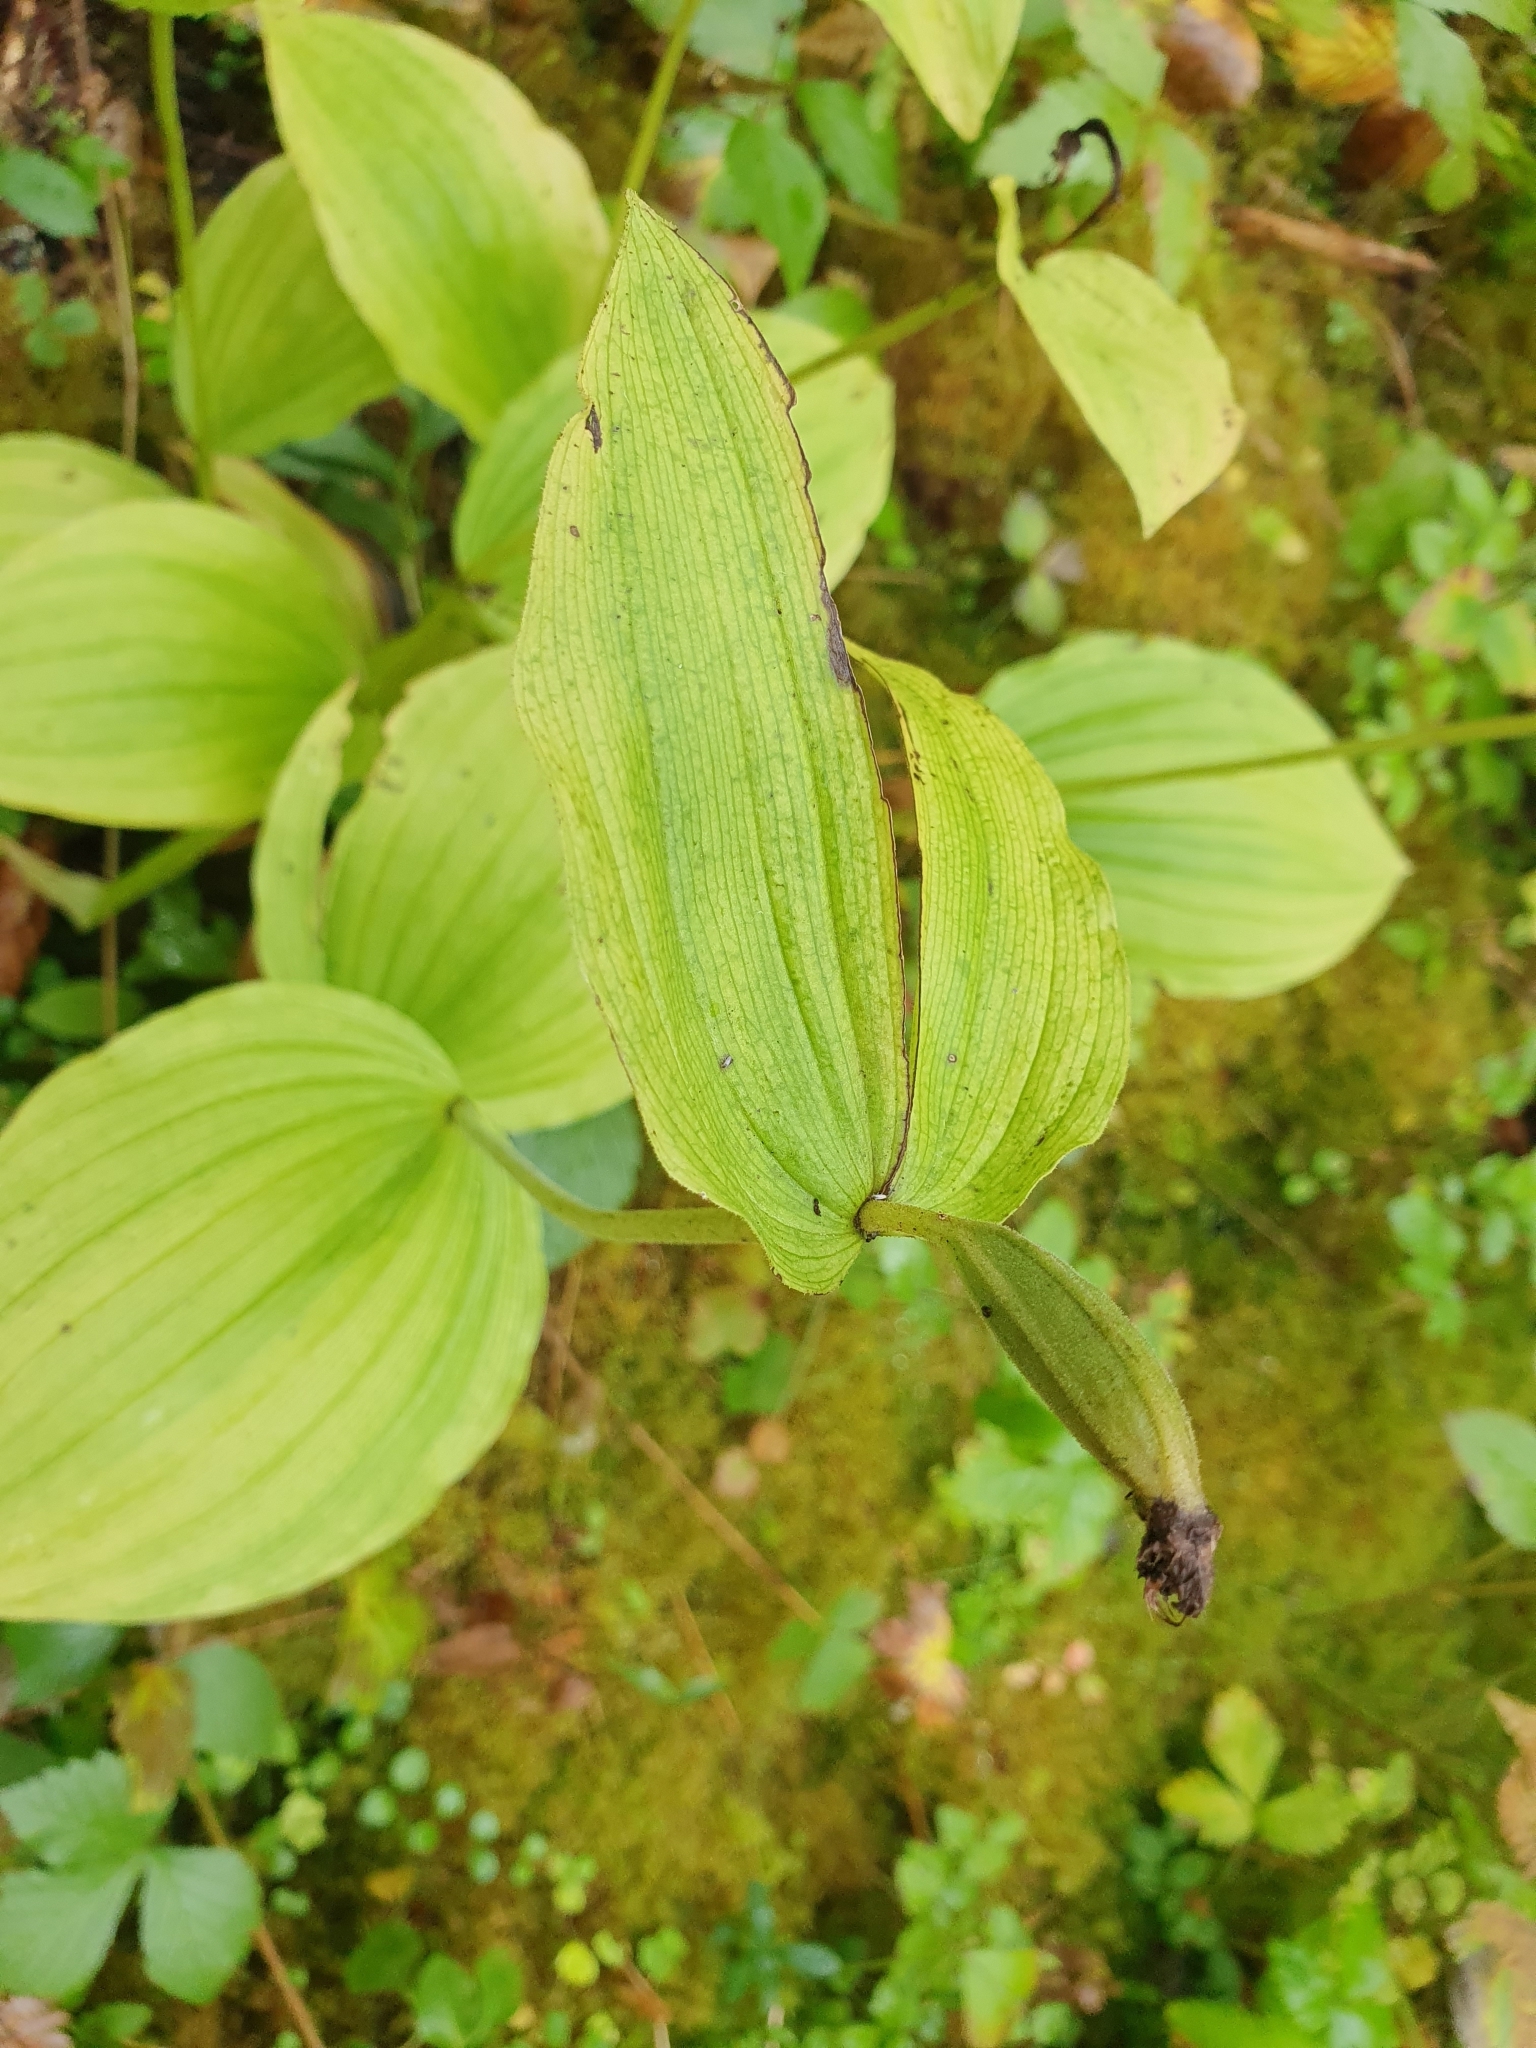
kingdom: Plantae
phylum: Tracheophyta
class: Liliopsida
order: Asparagales
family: Orchidaceae
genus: Cypripedium
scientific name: Cypripedium calceolus
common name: Lady's-slipper
